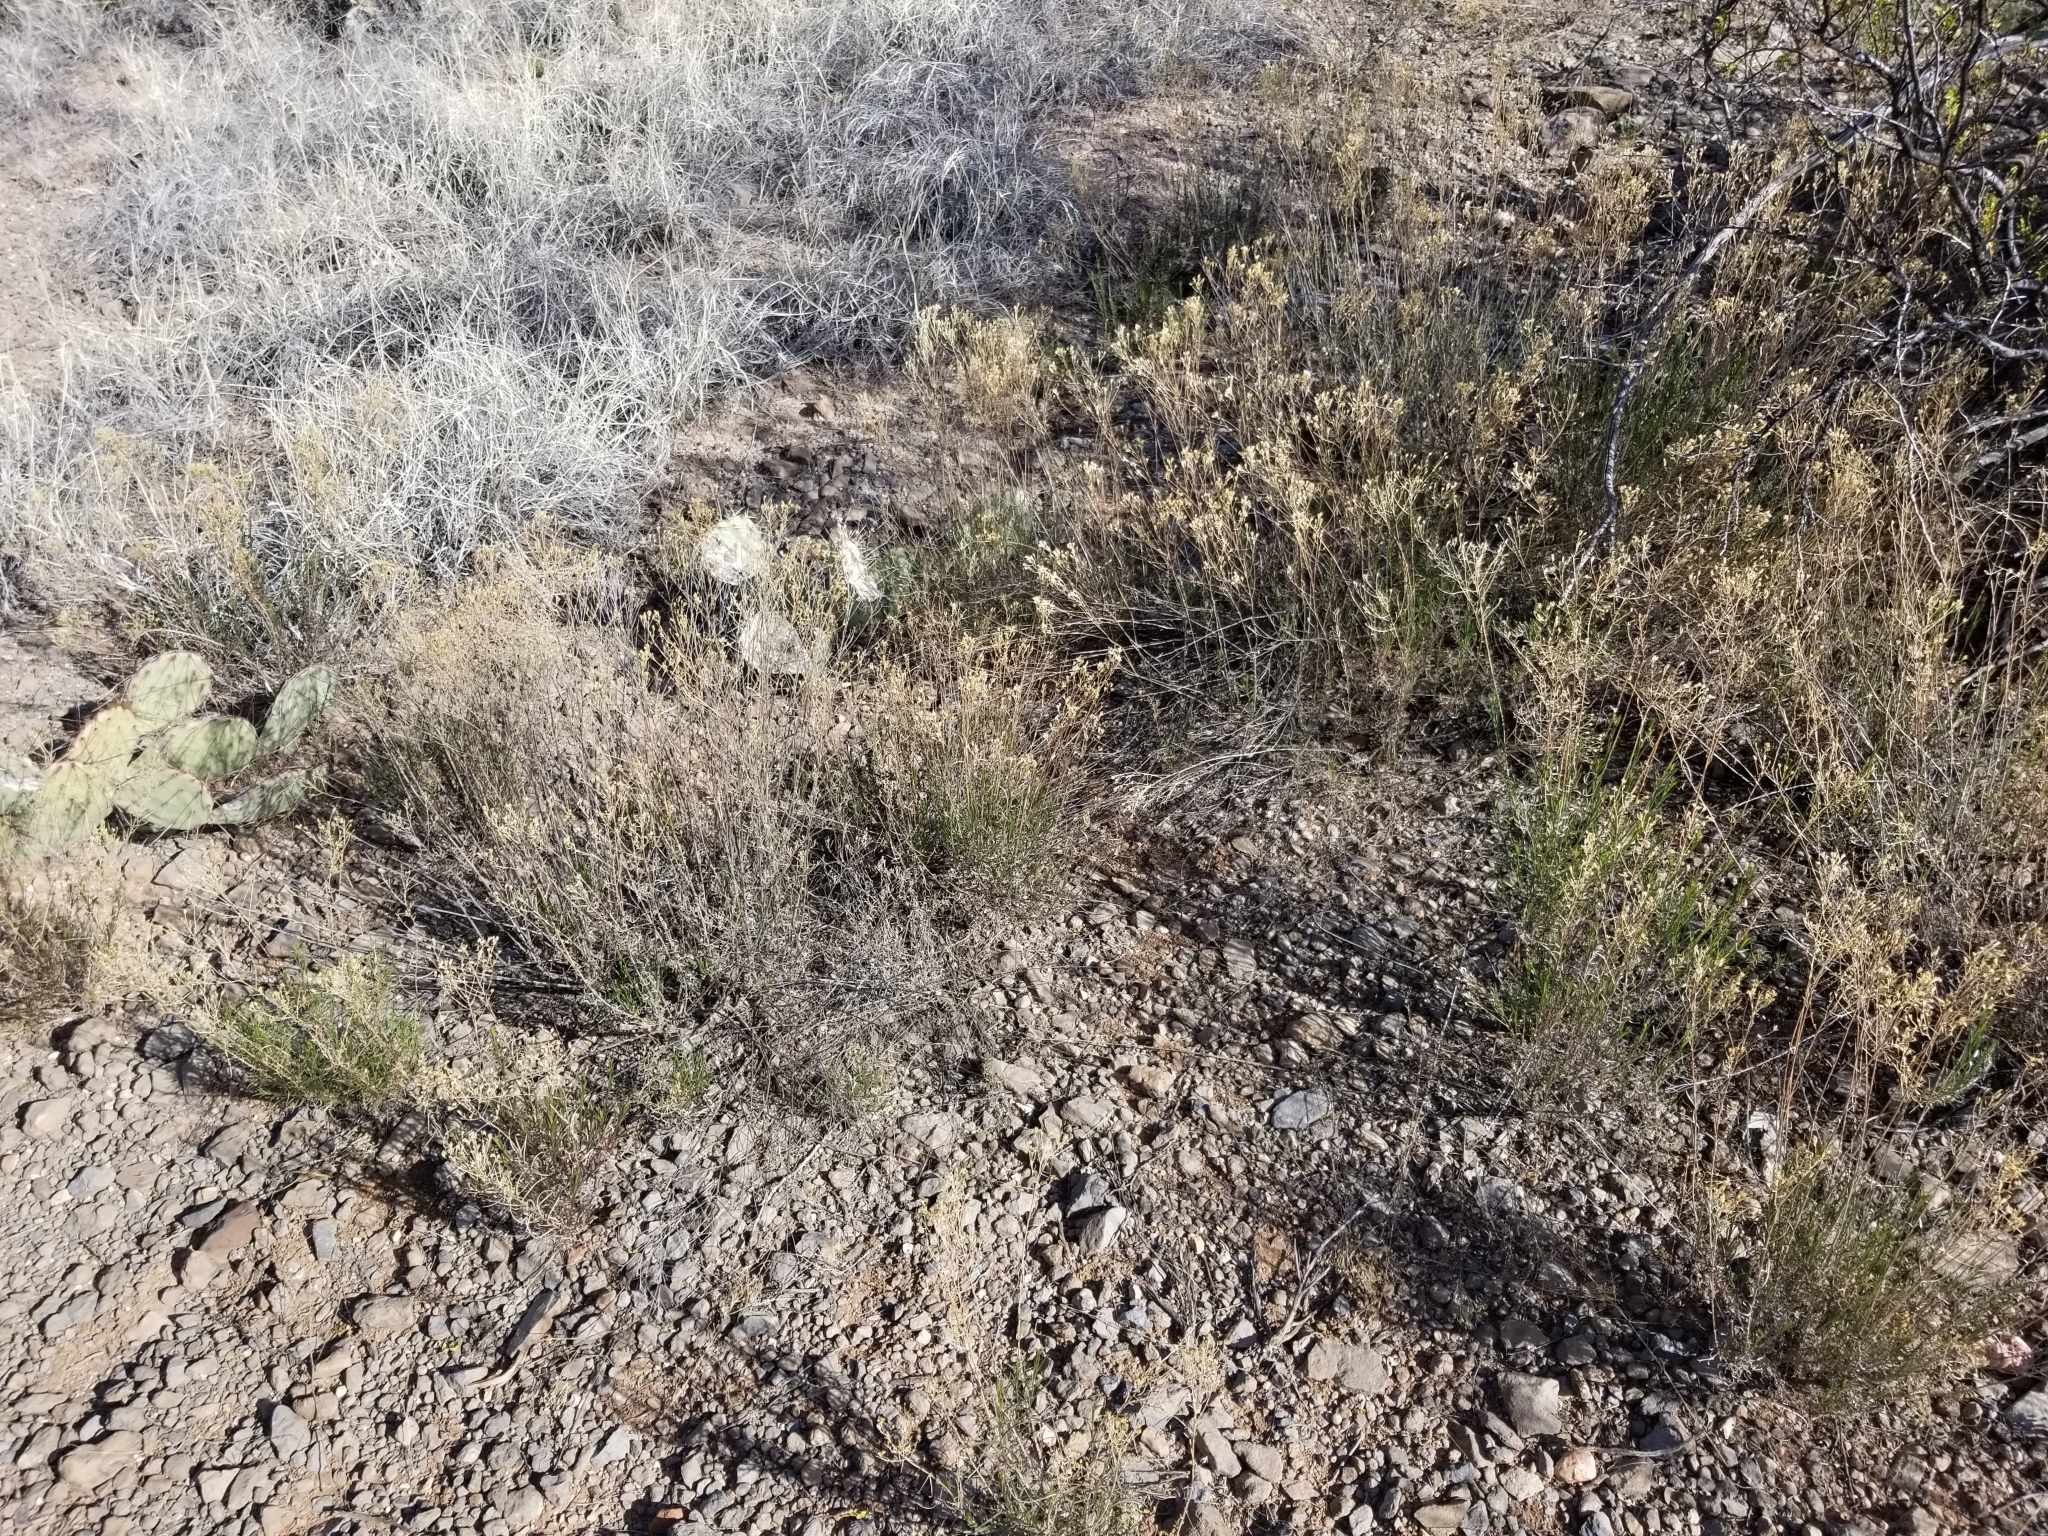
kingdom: Plantae
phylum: Tracheophyta
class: Magnoliopsida
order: Asterales
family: Asteraceae
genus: Gutierrezia
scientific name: Gutierrezia sarothrae
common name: Broom snakeweed
